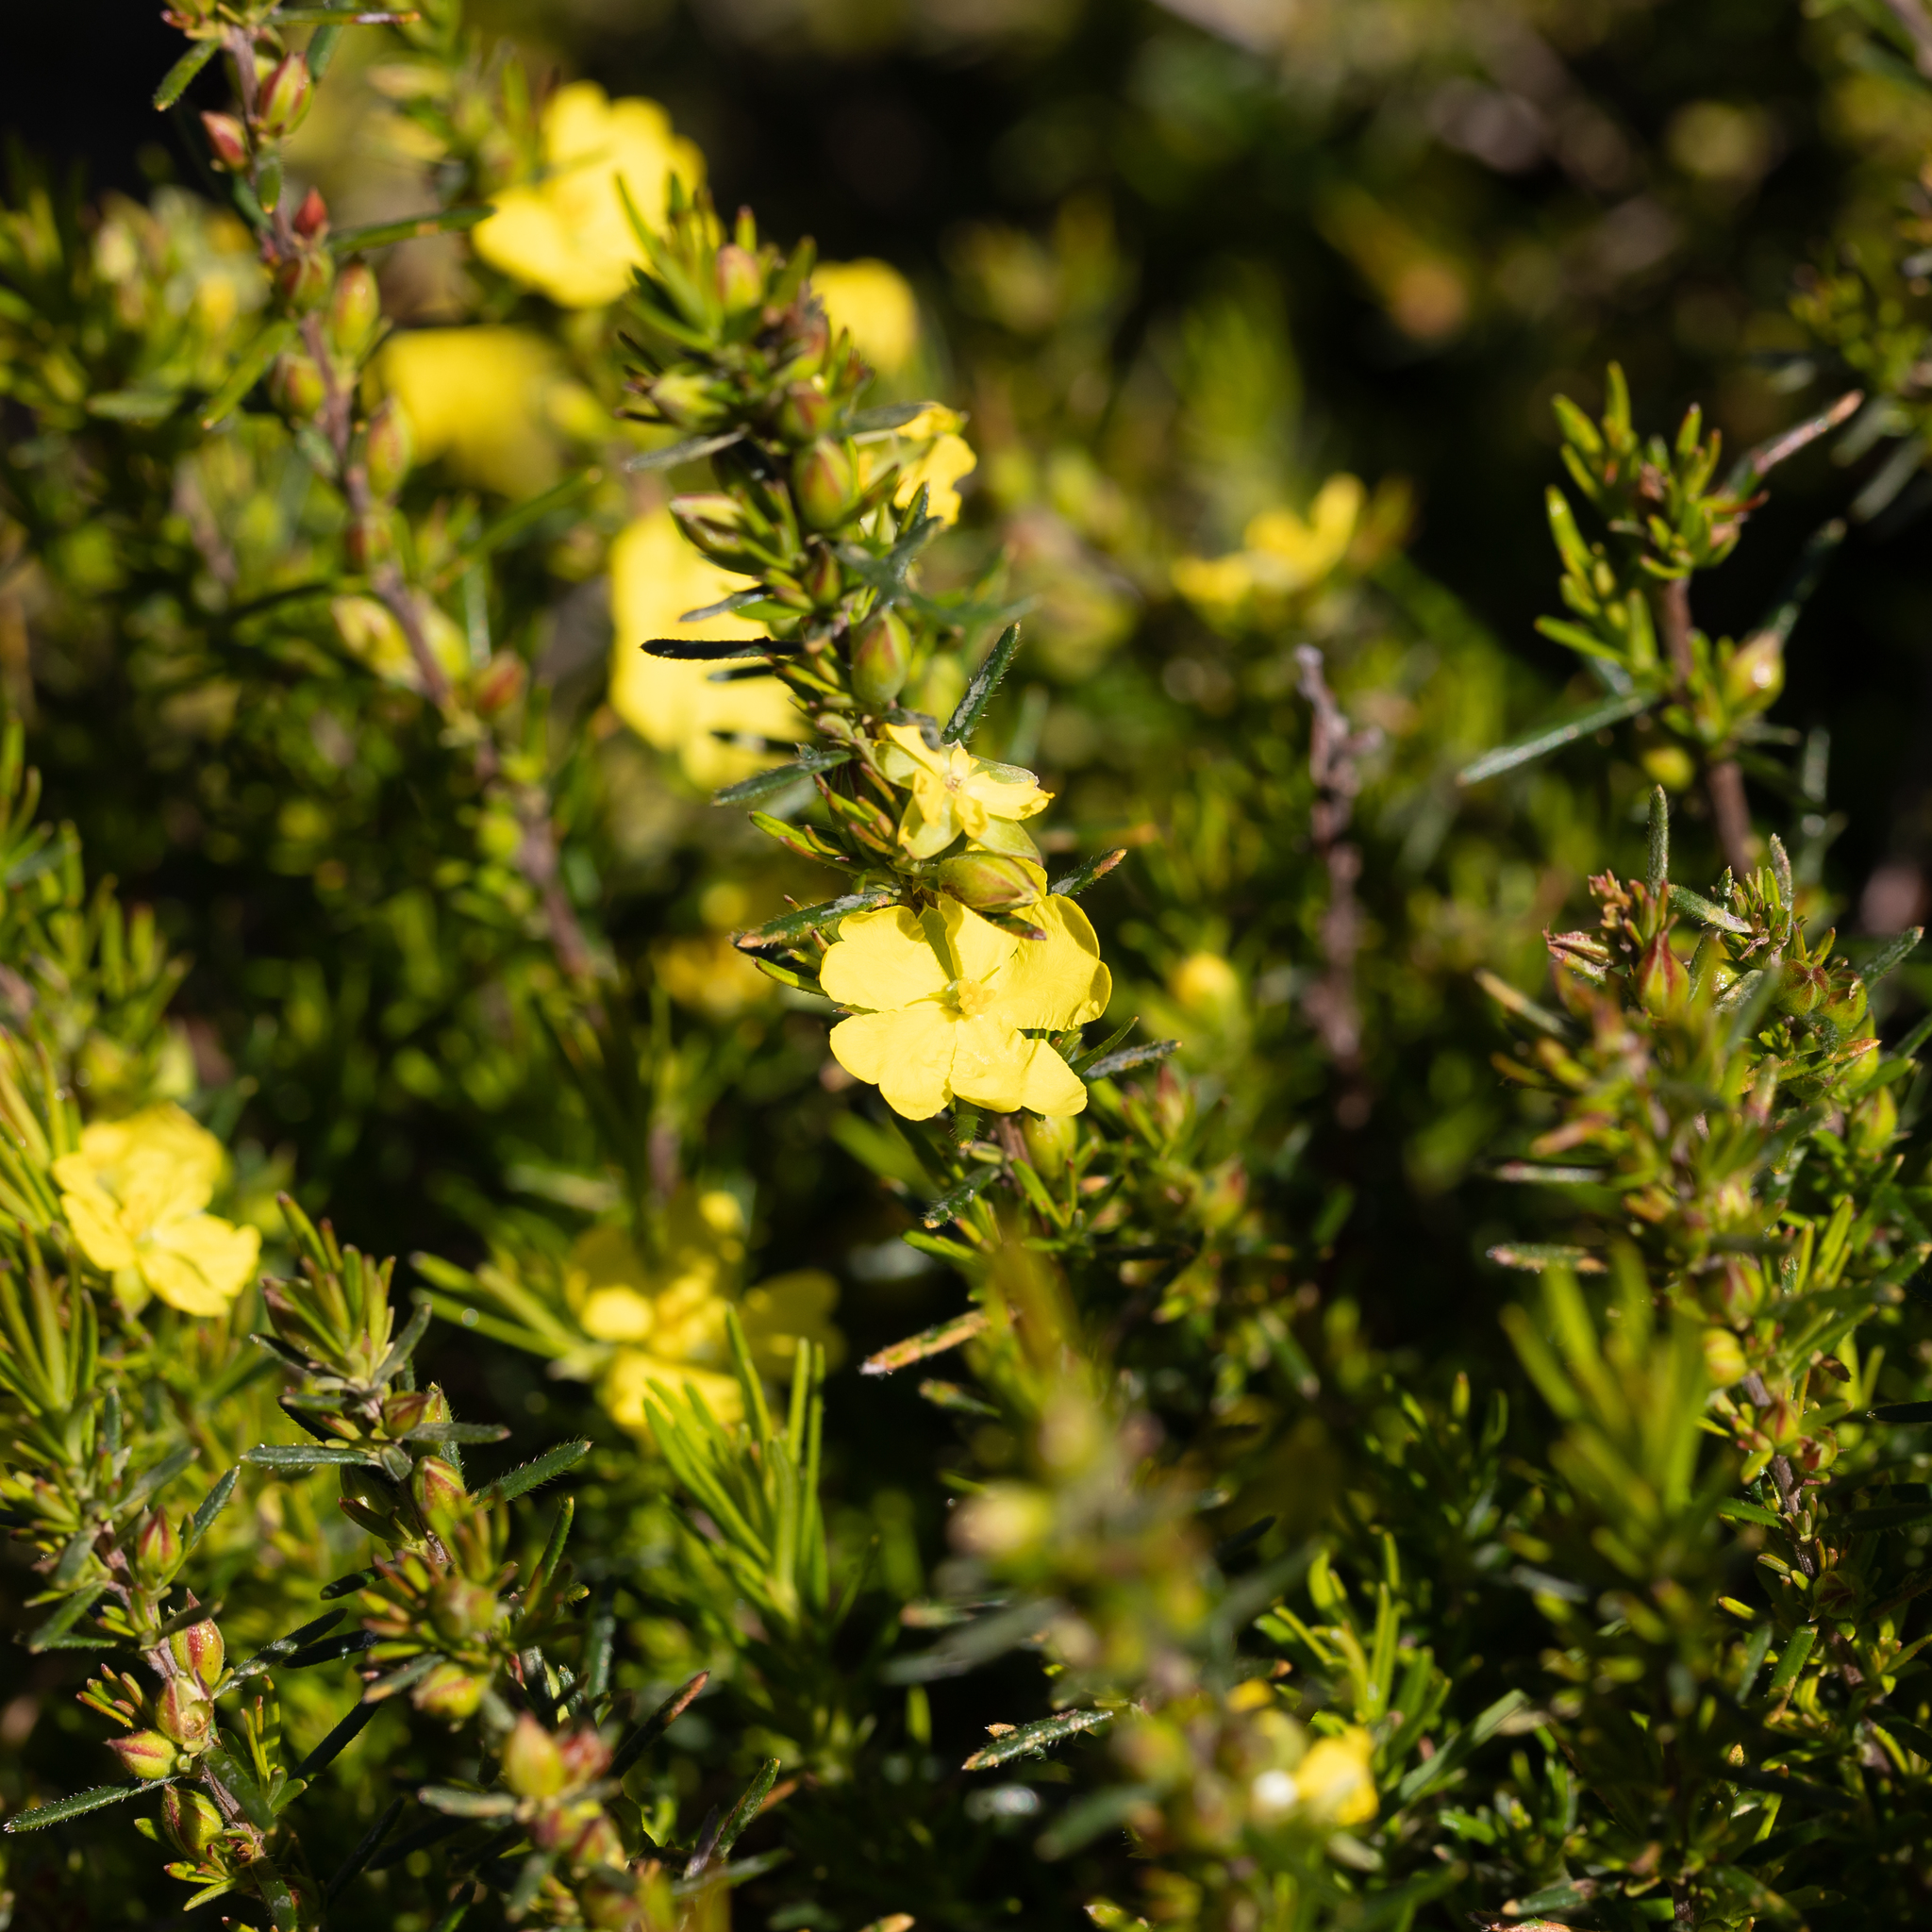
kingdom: Plantae
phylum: Tracheophyta
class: Magnoliopsida
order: Dilleniales
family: Dilleniaceae
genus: Hibbertia
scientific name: Hibbertia riparia
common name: Erect guinea-flower
